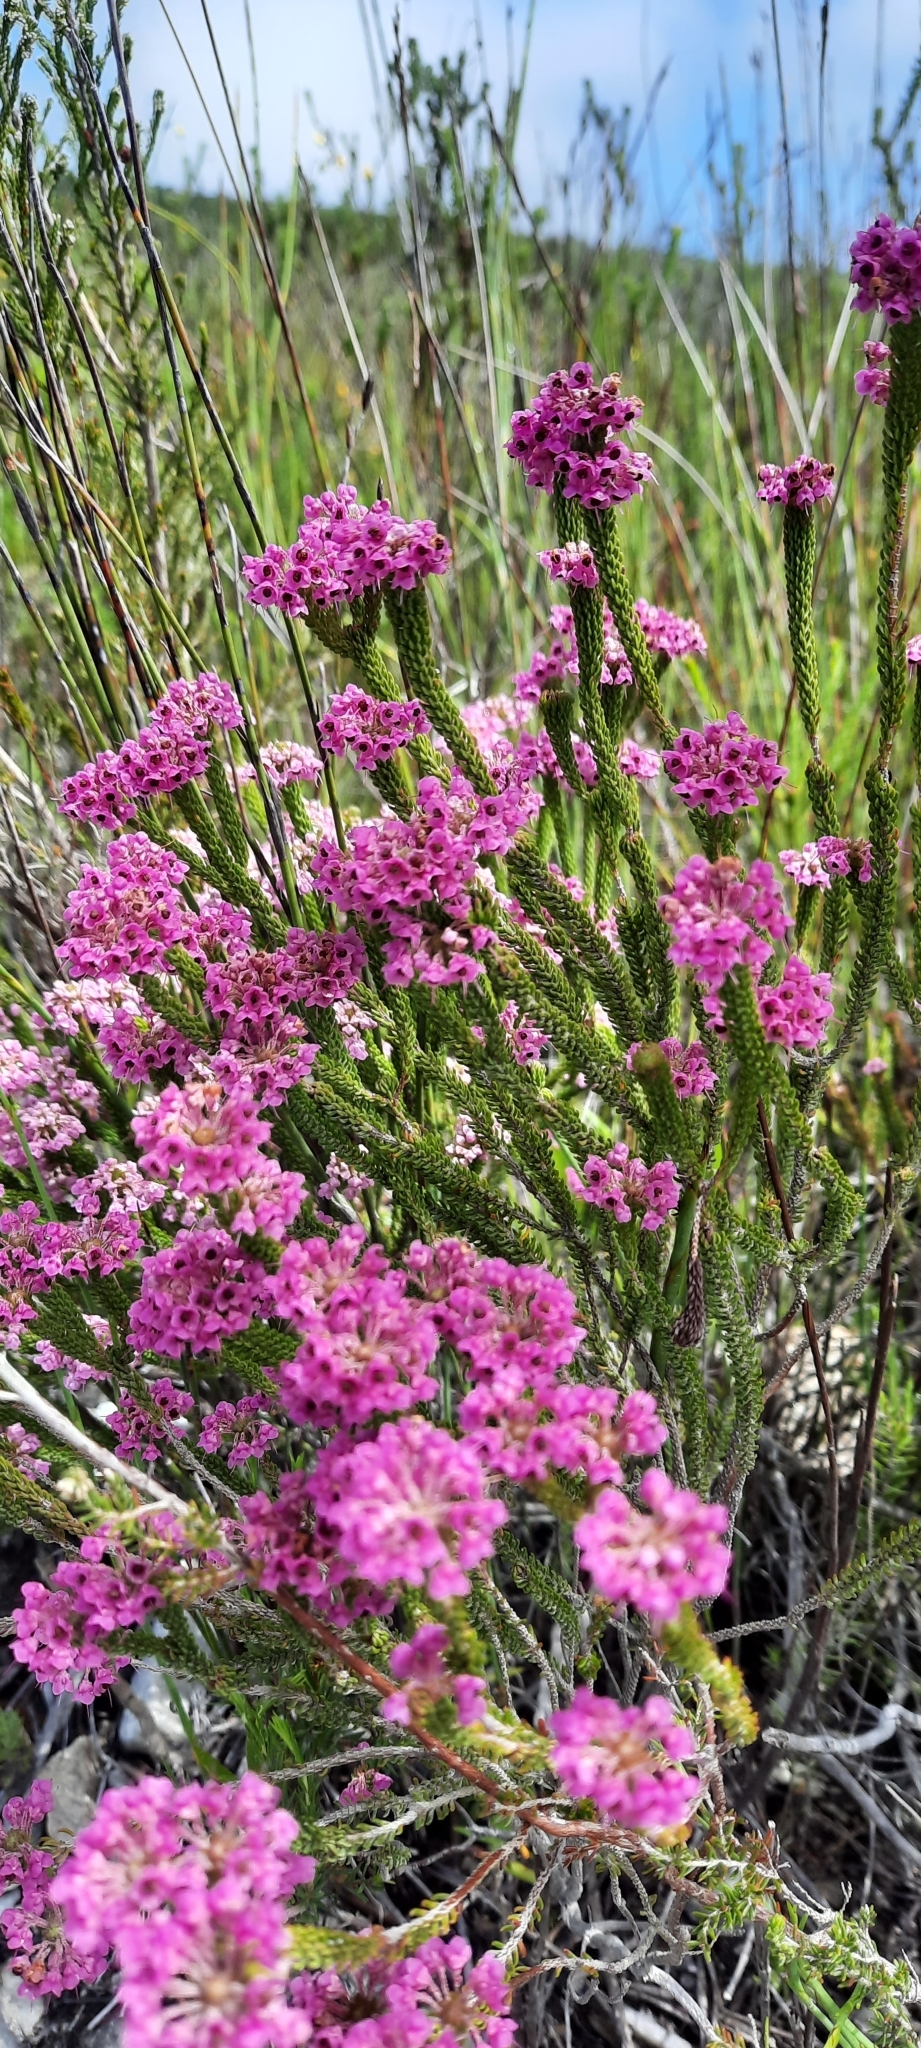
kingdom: Plantae
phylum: Tracheophyta
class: Magnoliopsida
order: Ericales
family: Ericaceae
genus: Erica
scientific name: Erica seriphiifolia
